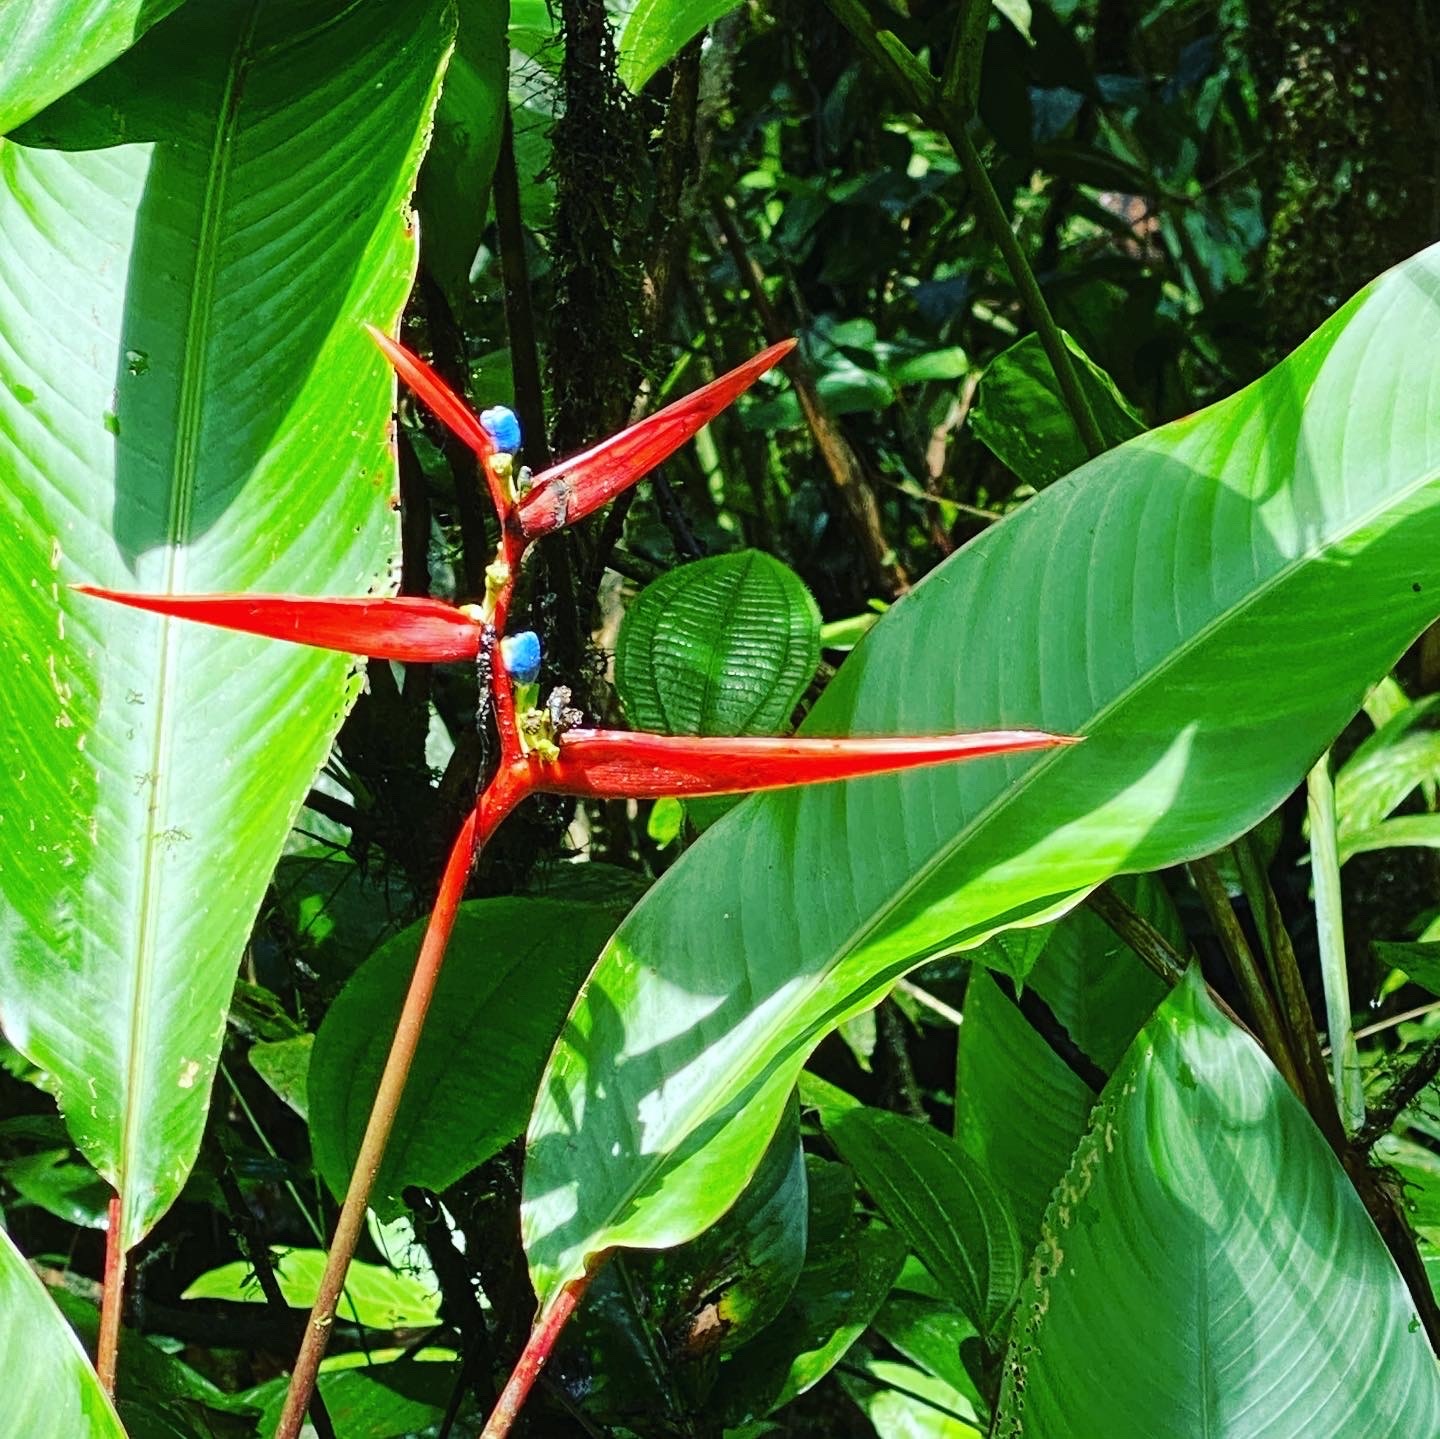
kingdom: Plantae
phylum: Tracheophyta
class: Liliopsida
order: Zingiberales
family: Heliconiaceae
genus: Heliconia
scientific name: Heliconia acuminata
